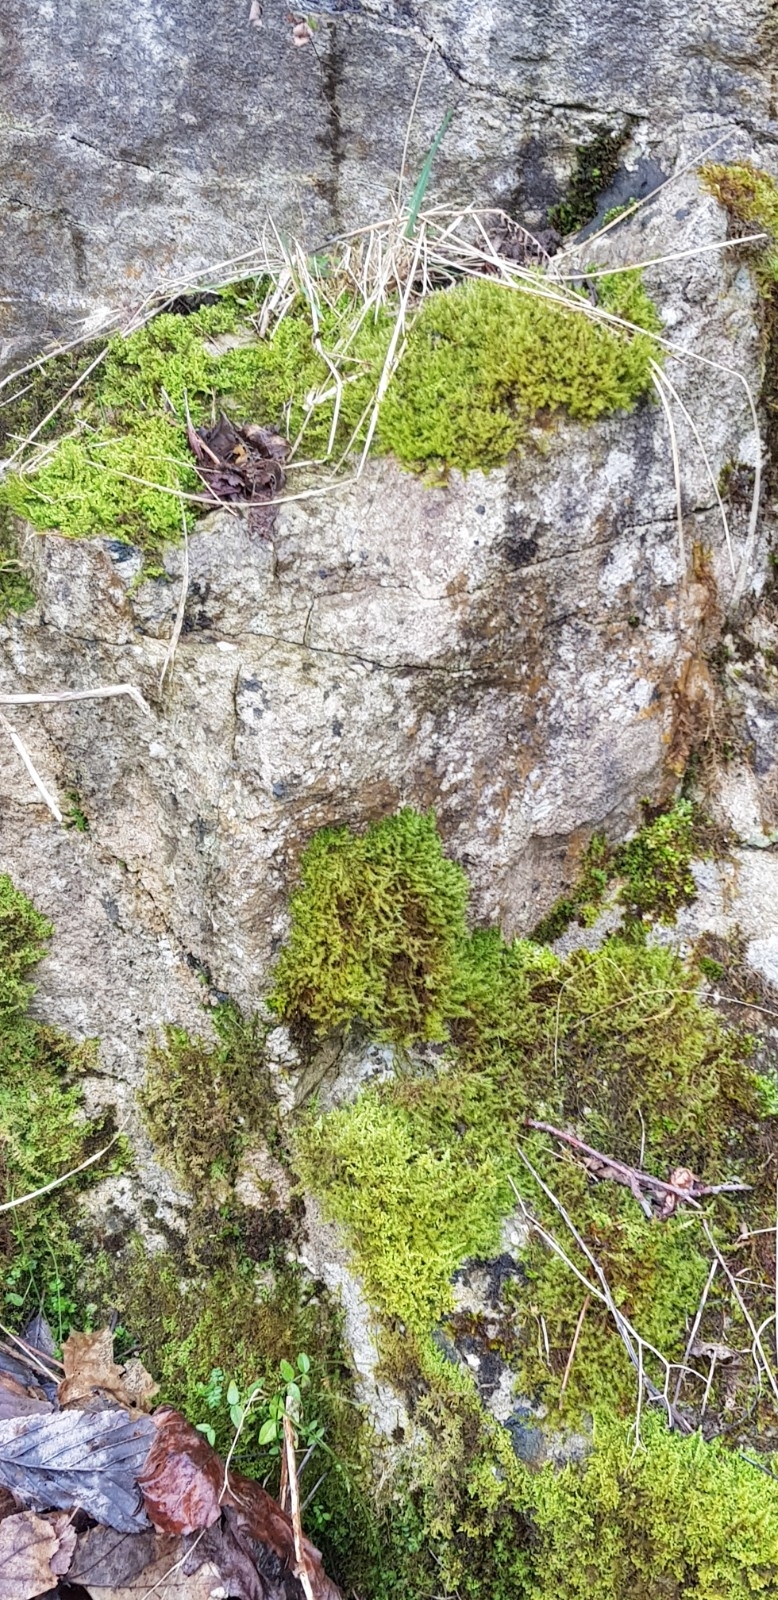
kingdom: Plantae
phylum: Bryophyta
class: Bryopsida
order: Hypnales
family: Amblystegiaceae
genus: Campylium
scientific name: Campylium protensum
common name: Dull starry fen moss
